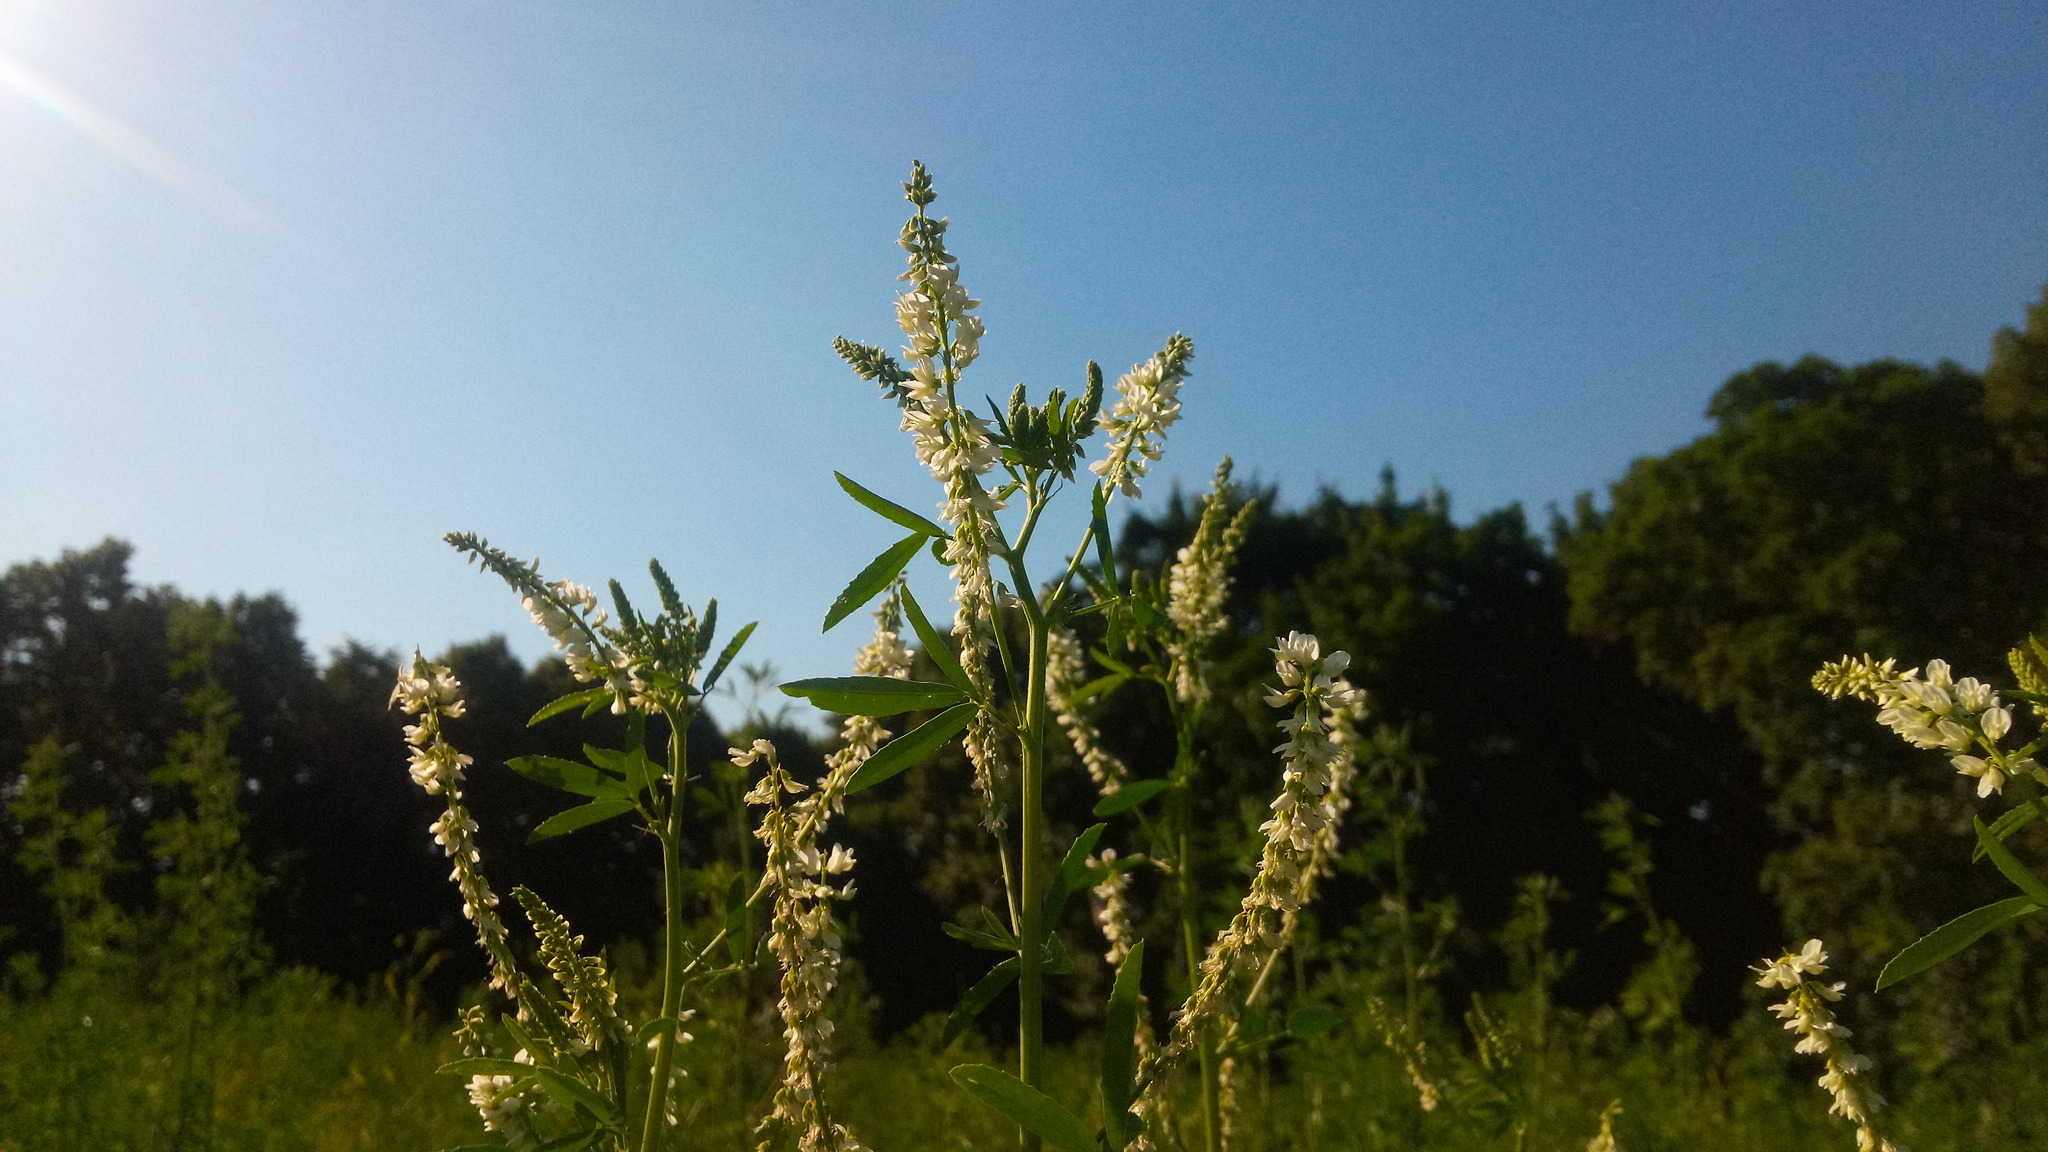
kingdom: Plantae
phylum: Tracheophyta
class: Magnoliopsida
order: Fabales
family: Fabaceae
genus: Melilotus
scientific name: Melilotus albus
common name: White melilot
